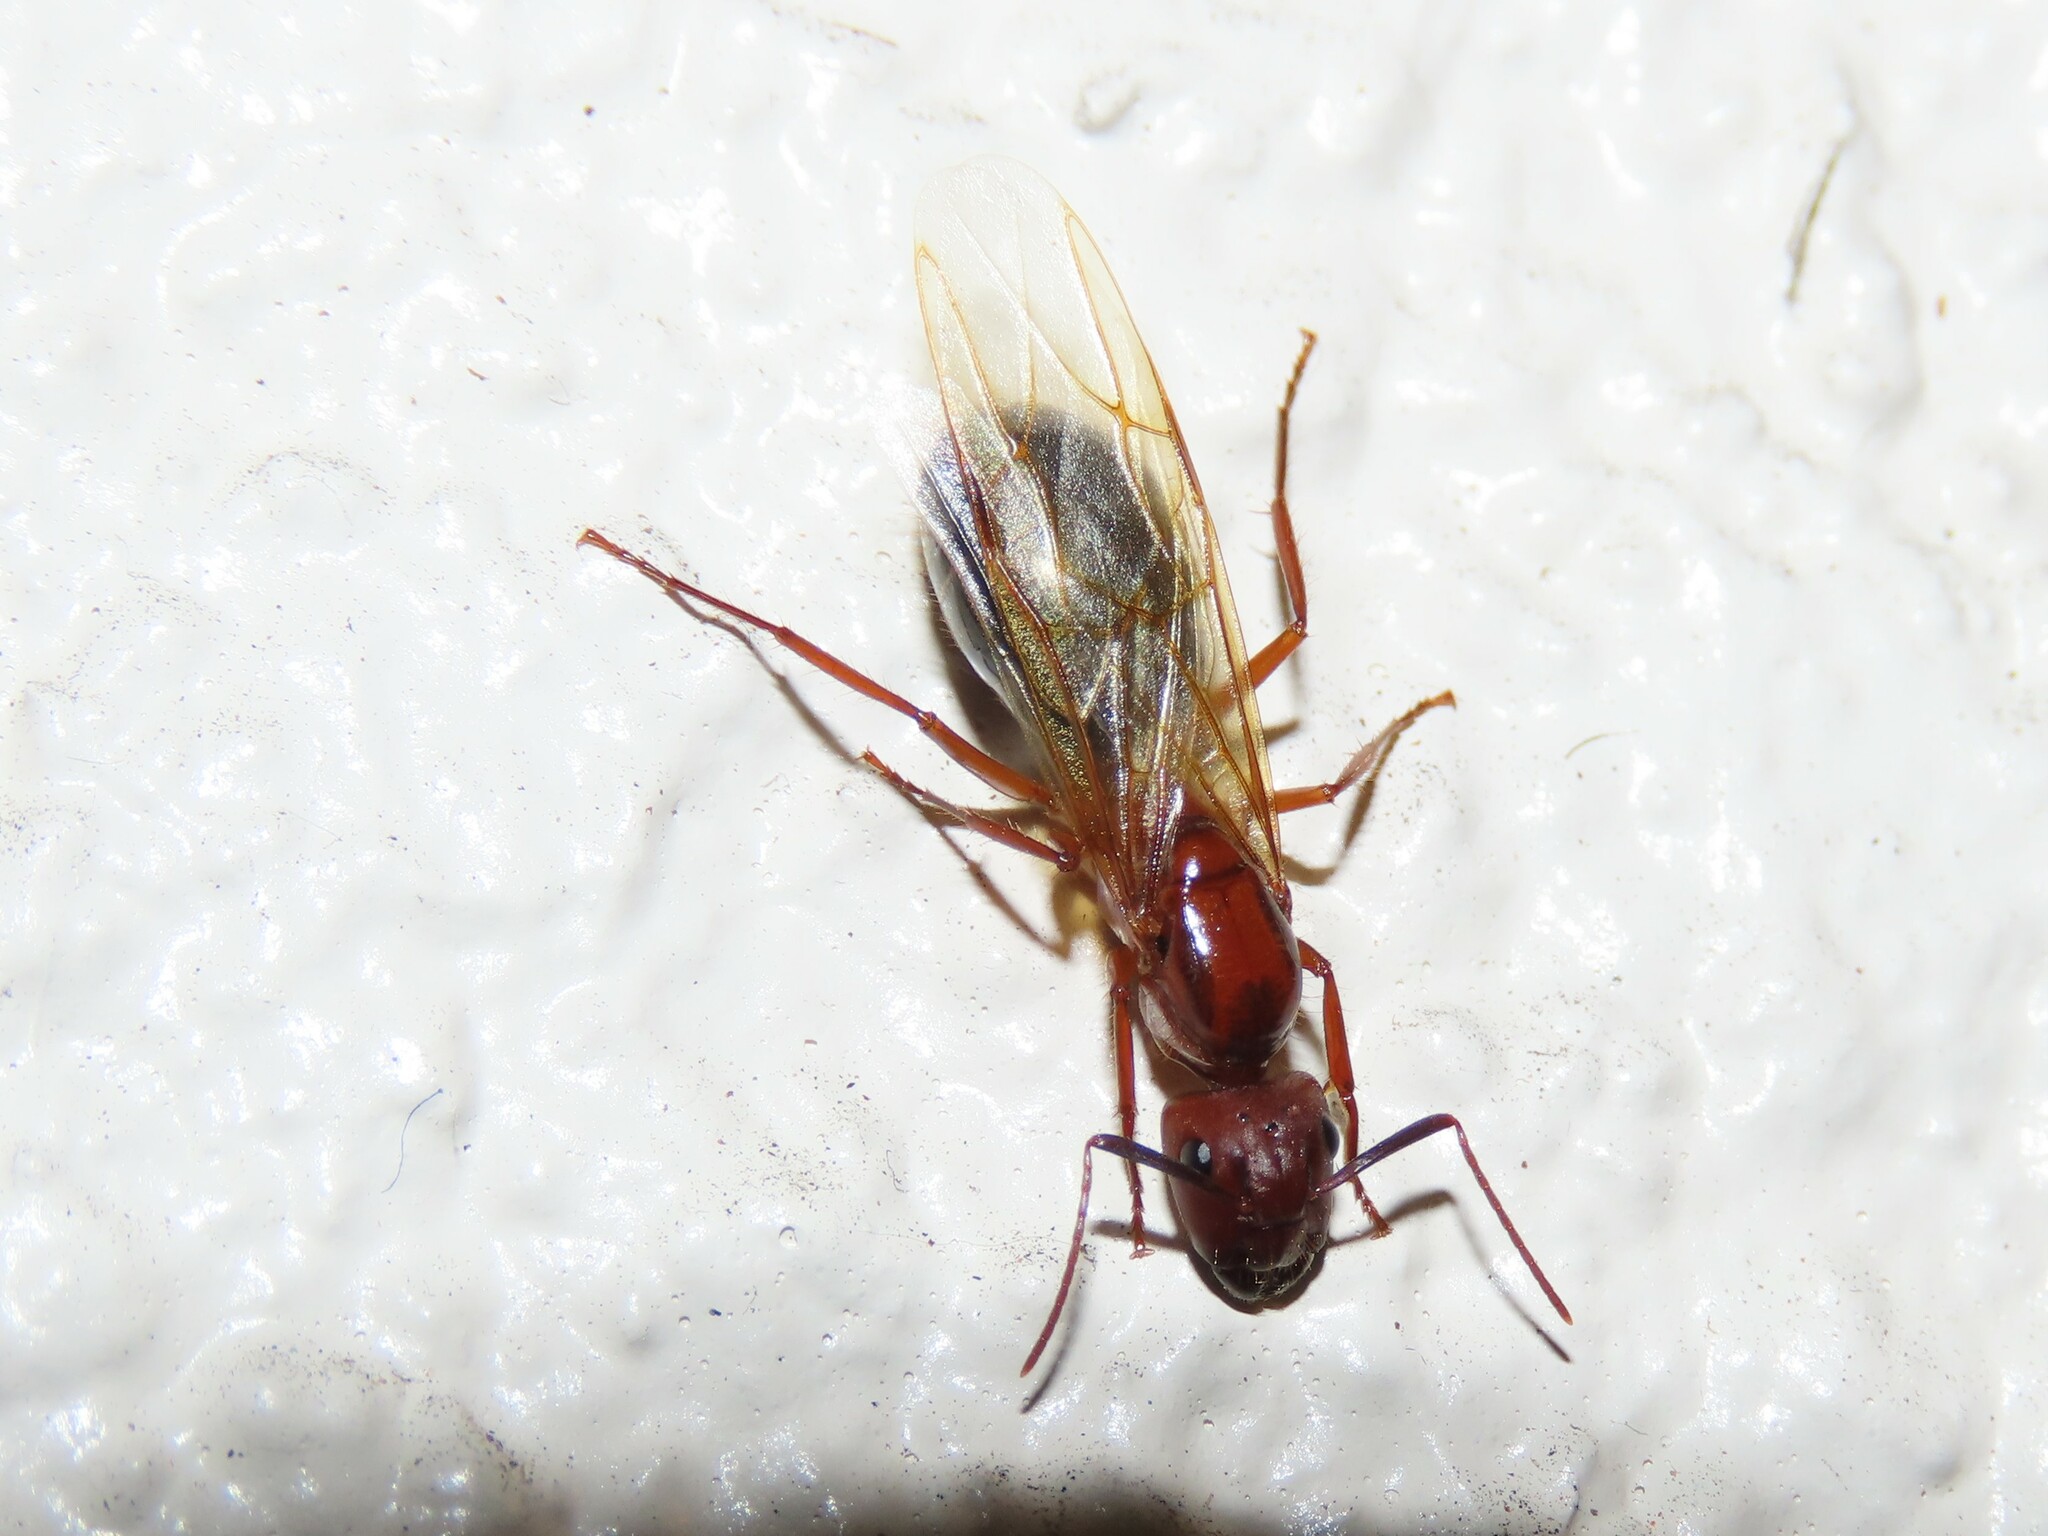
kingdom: Animalia
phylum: Arthropoda
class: Insecta
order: Hymenoptera
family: Formicidae
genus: Camponotus
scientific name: Camponotus floridanus
